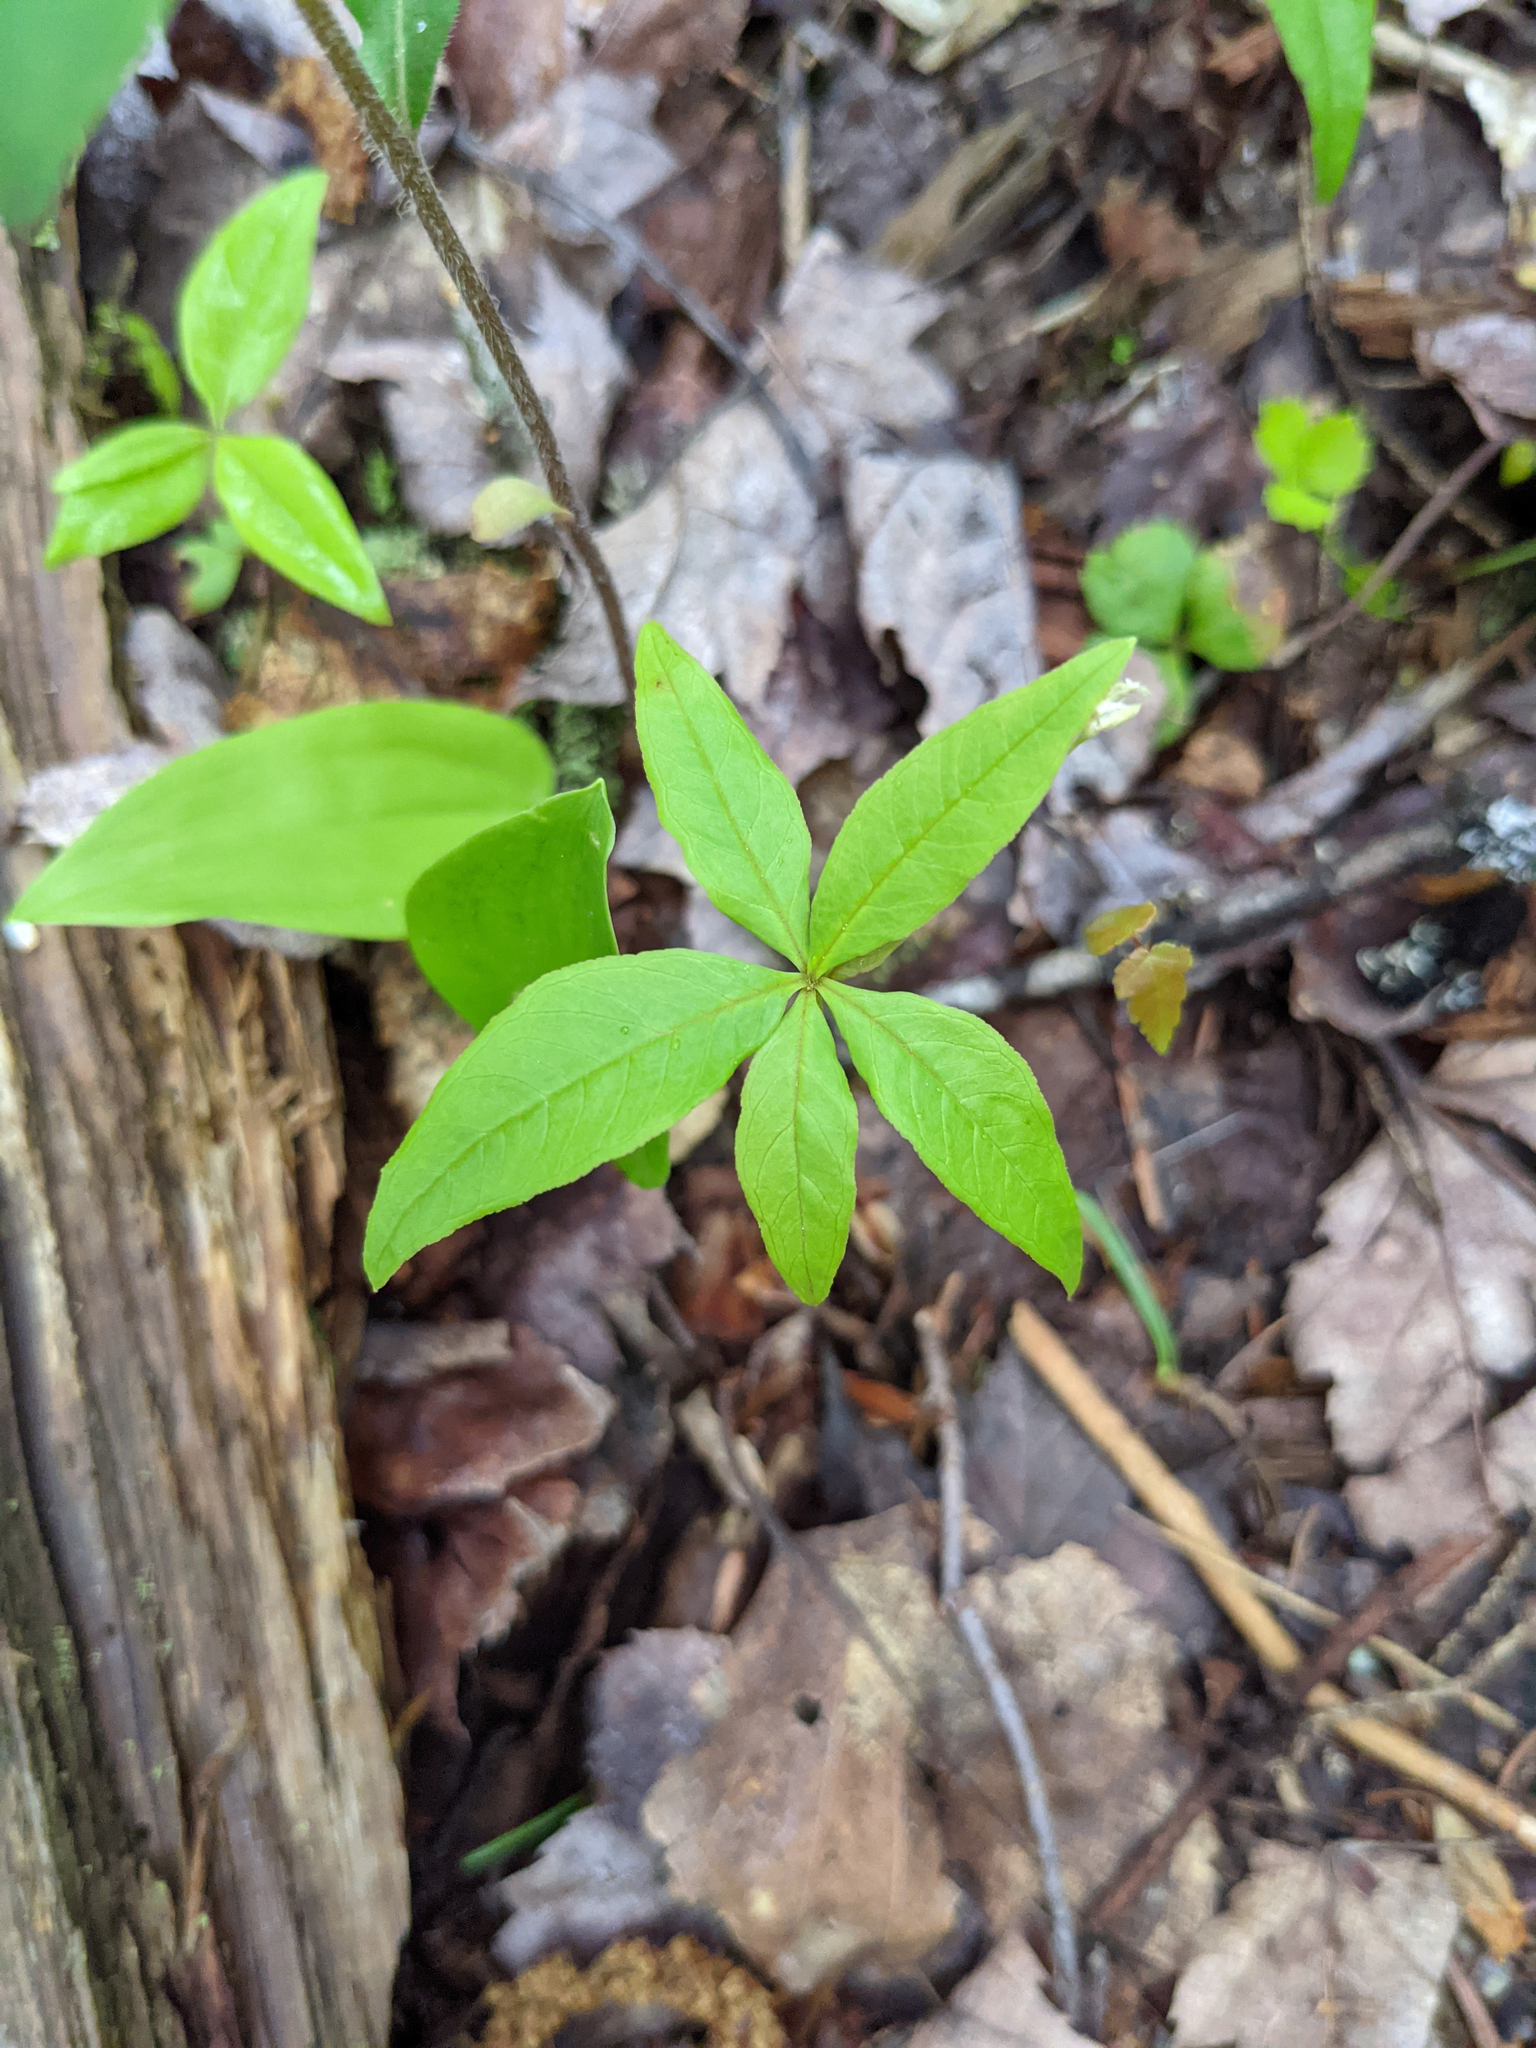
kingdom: Plantae
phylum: Tracheophyta
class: Magnoliopsida
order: Ericales
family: Primulaceae
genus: Lysimachia
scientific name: Lysimachia borealis
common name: American starflower
